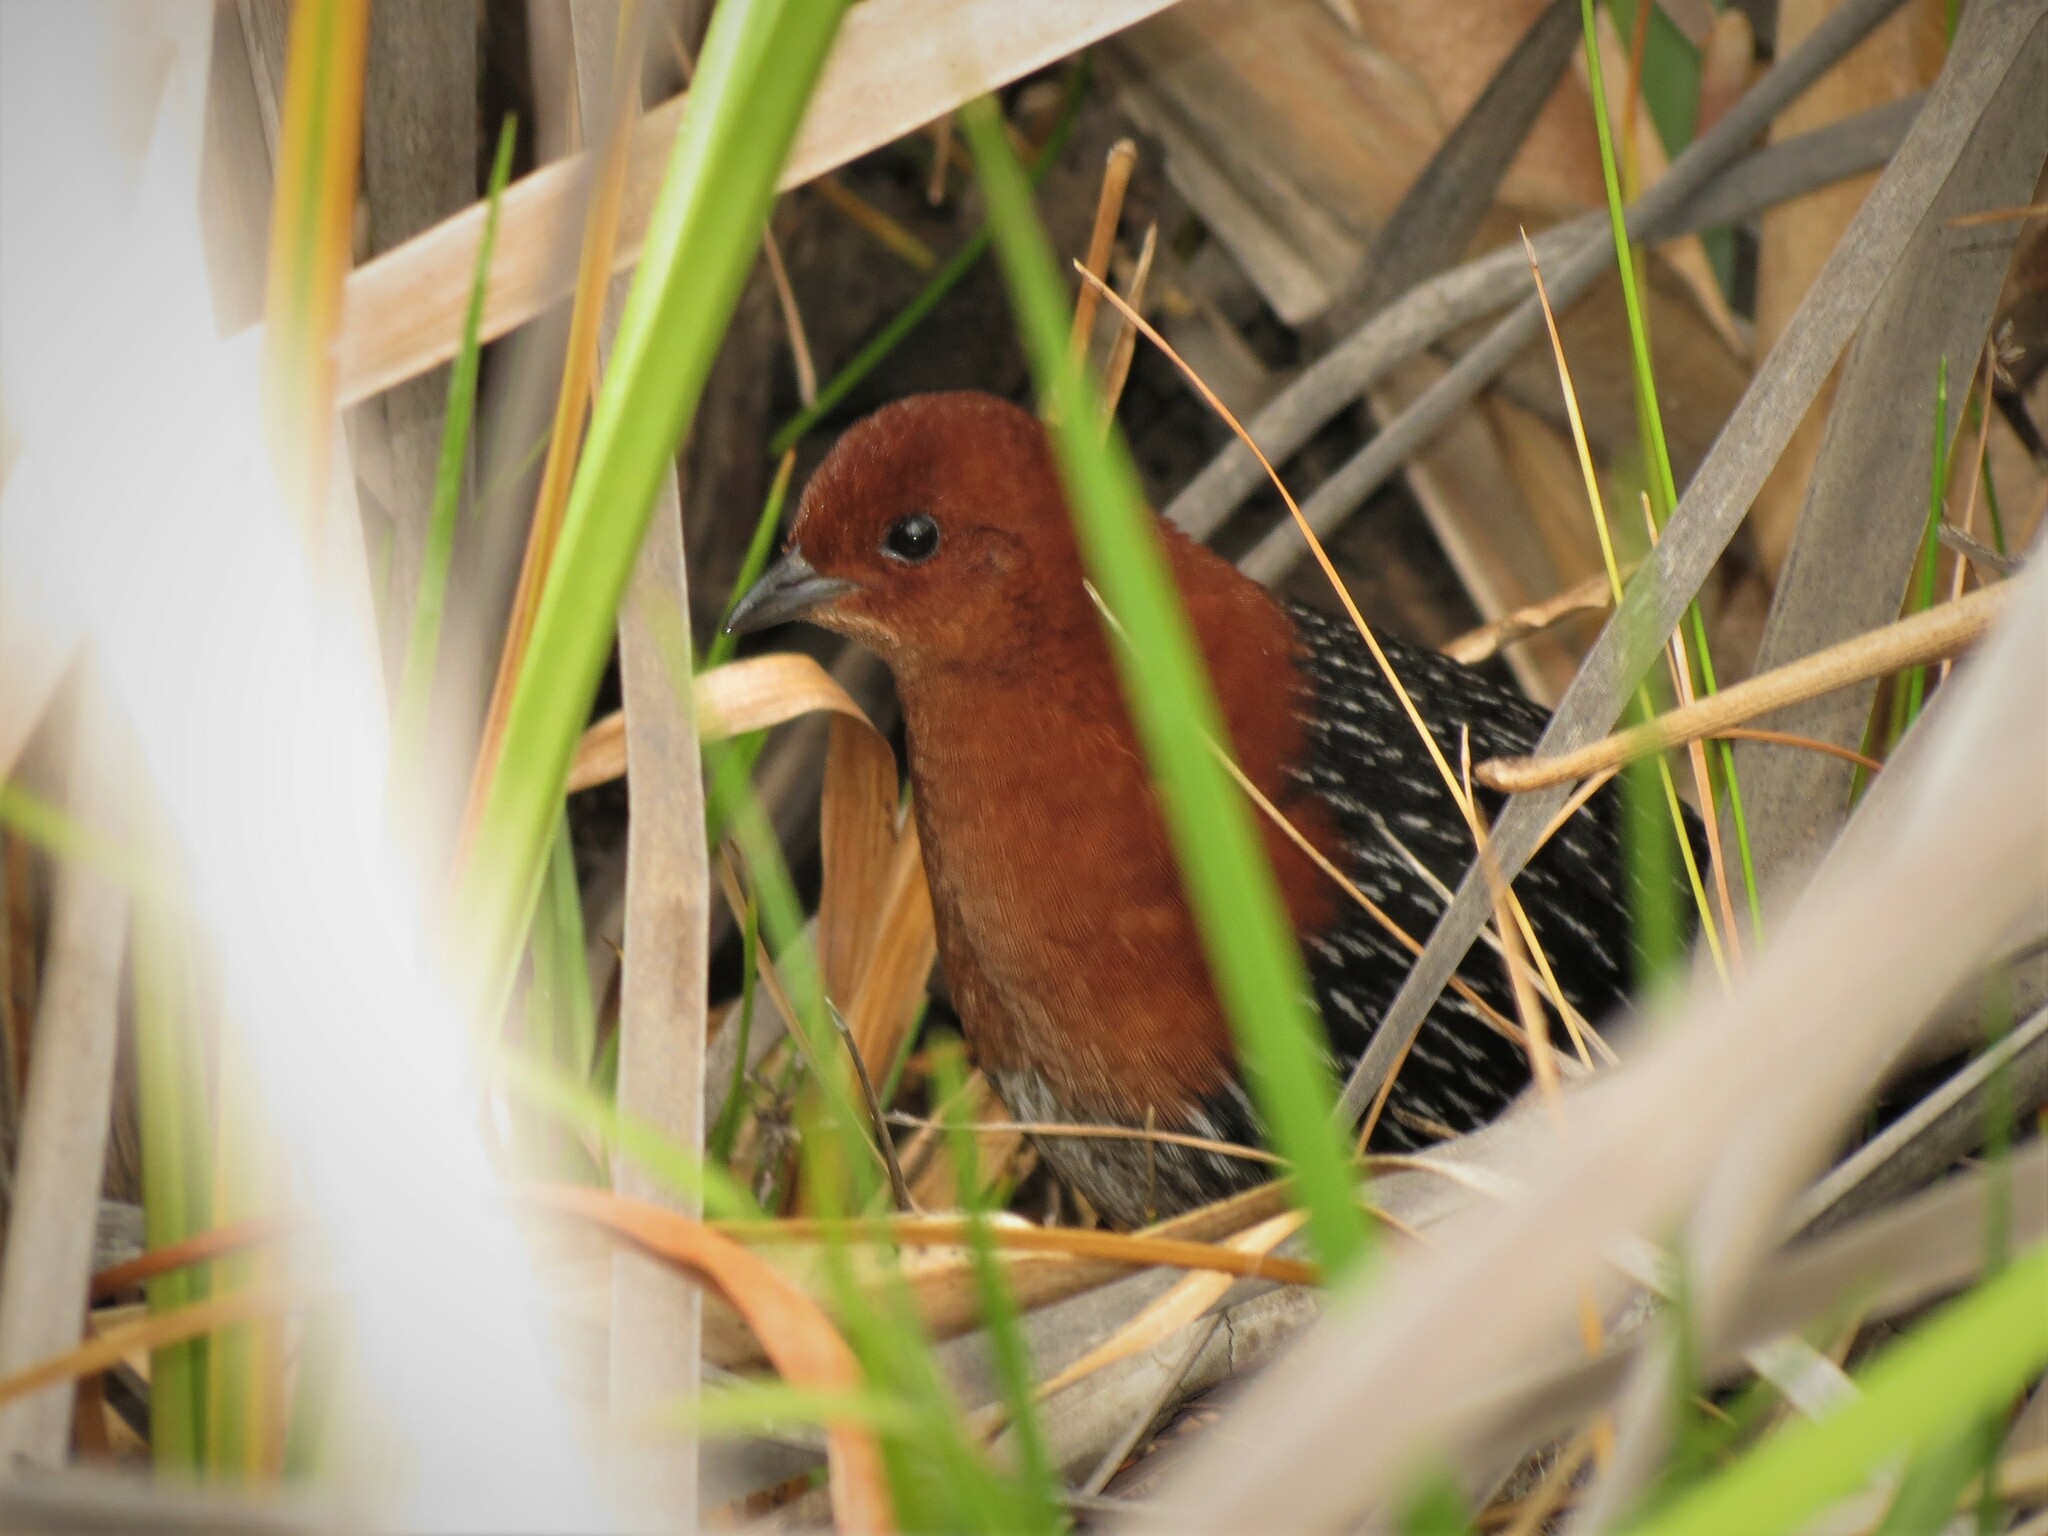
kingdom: Animalia
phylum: Chordata
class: Aves
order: Gruiformes
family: Rallidae
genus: Sarothrura
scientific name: Sarothrura rufa
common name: Red-chested flufftail
